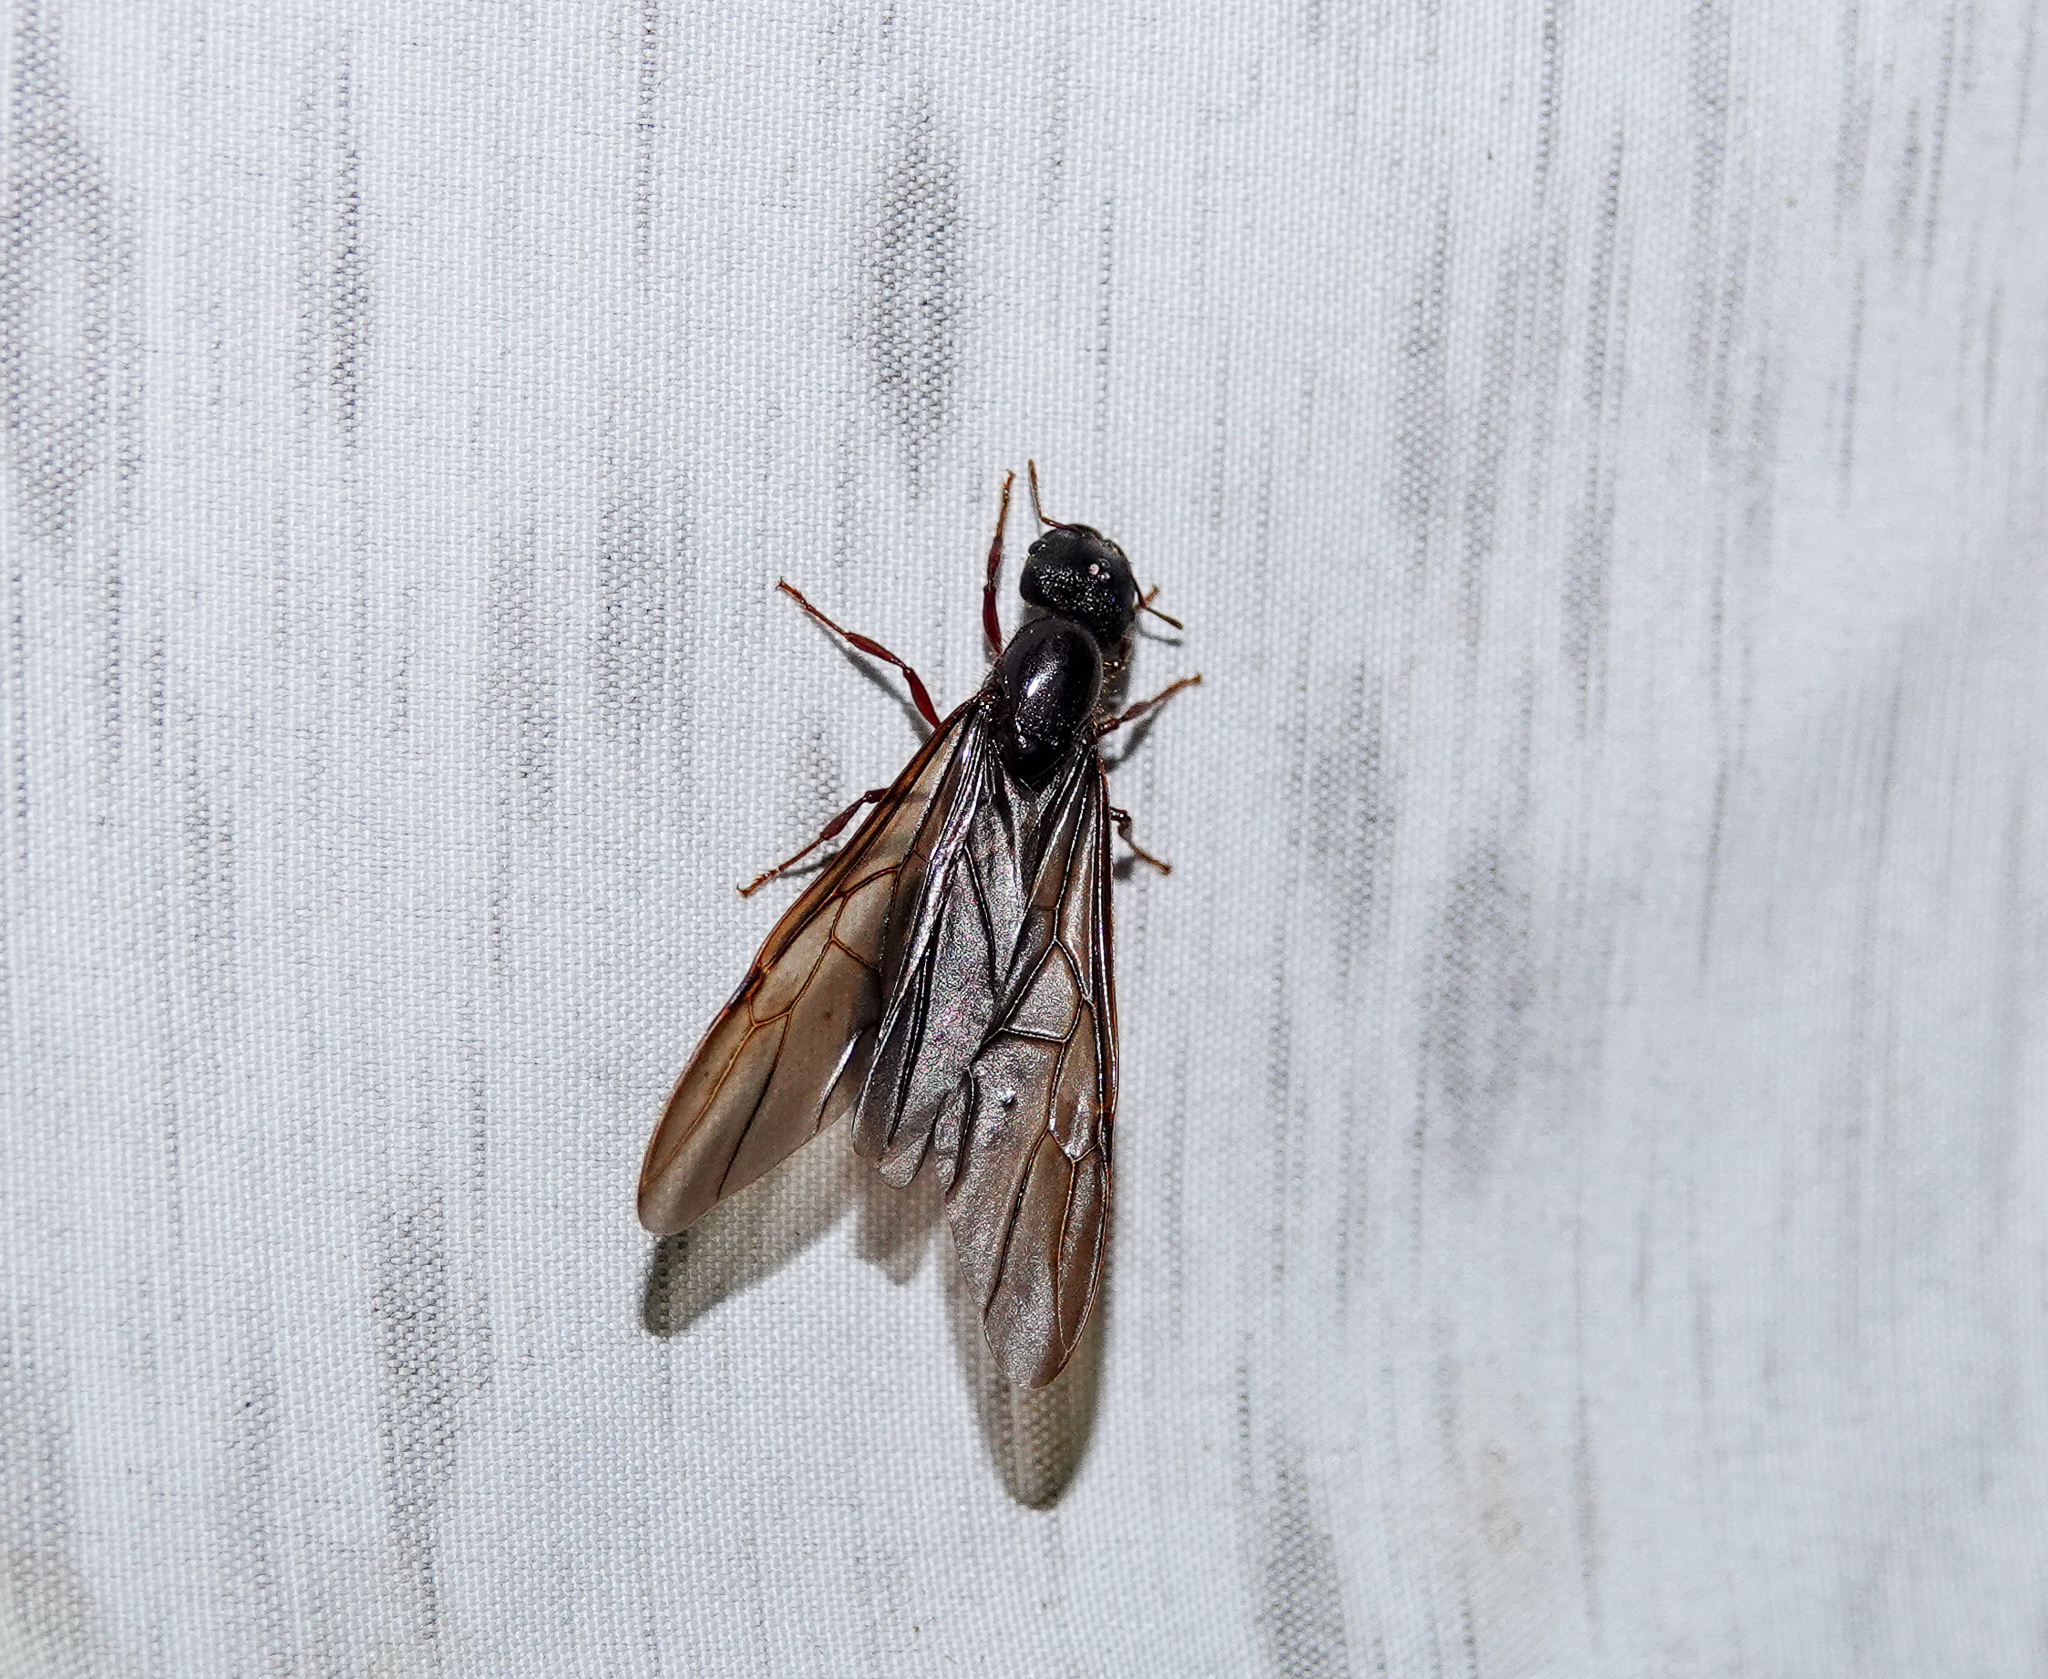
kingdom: Animalia
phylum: Arthropoda
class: Insecta
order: Hymenoptera
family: Formicidae
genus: Pheidologeton
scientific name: Pheidologeton diversus
